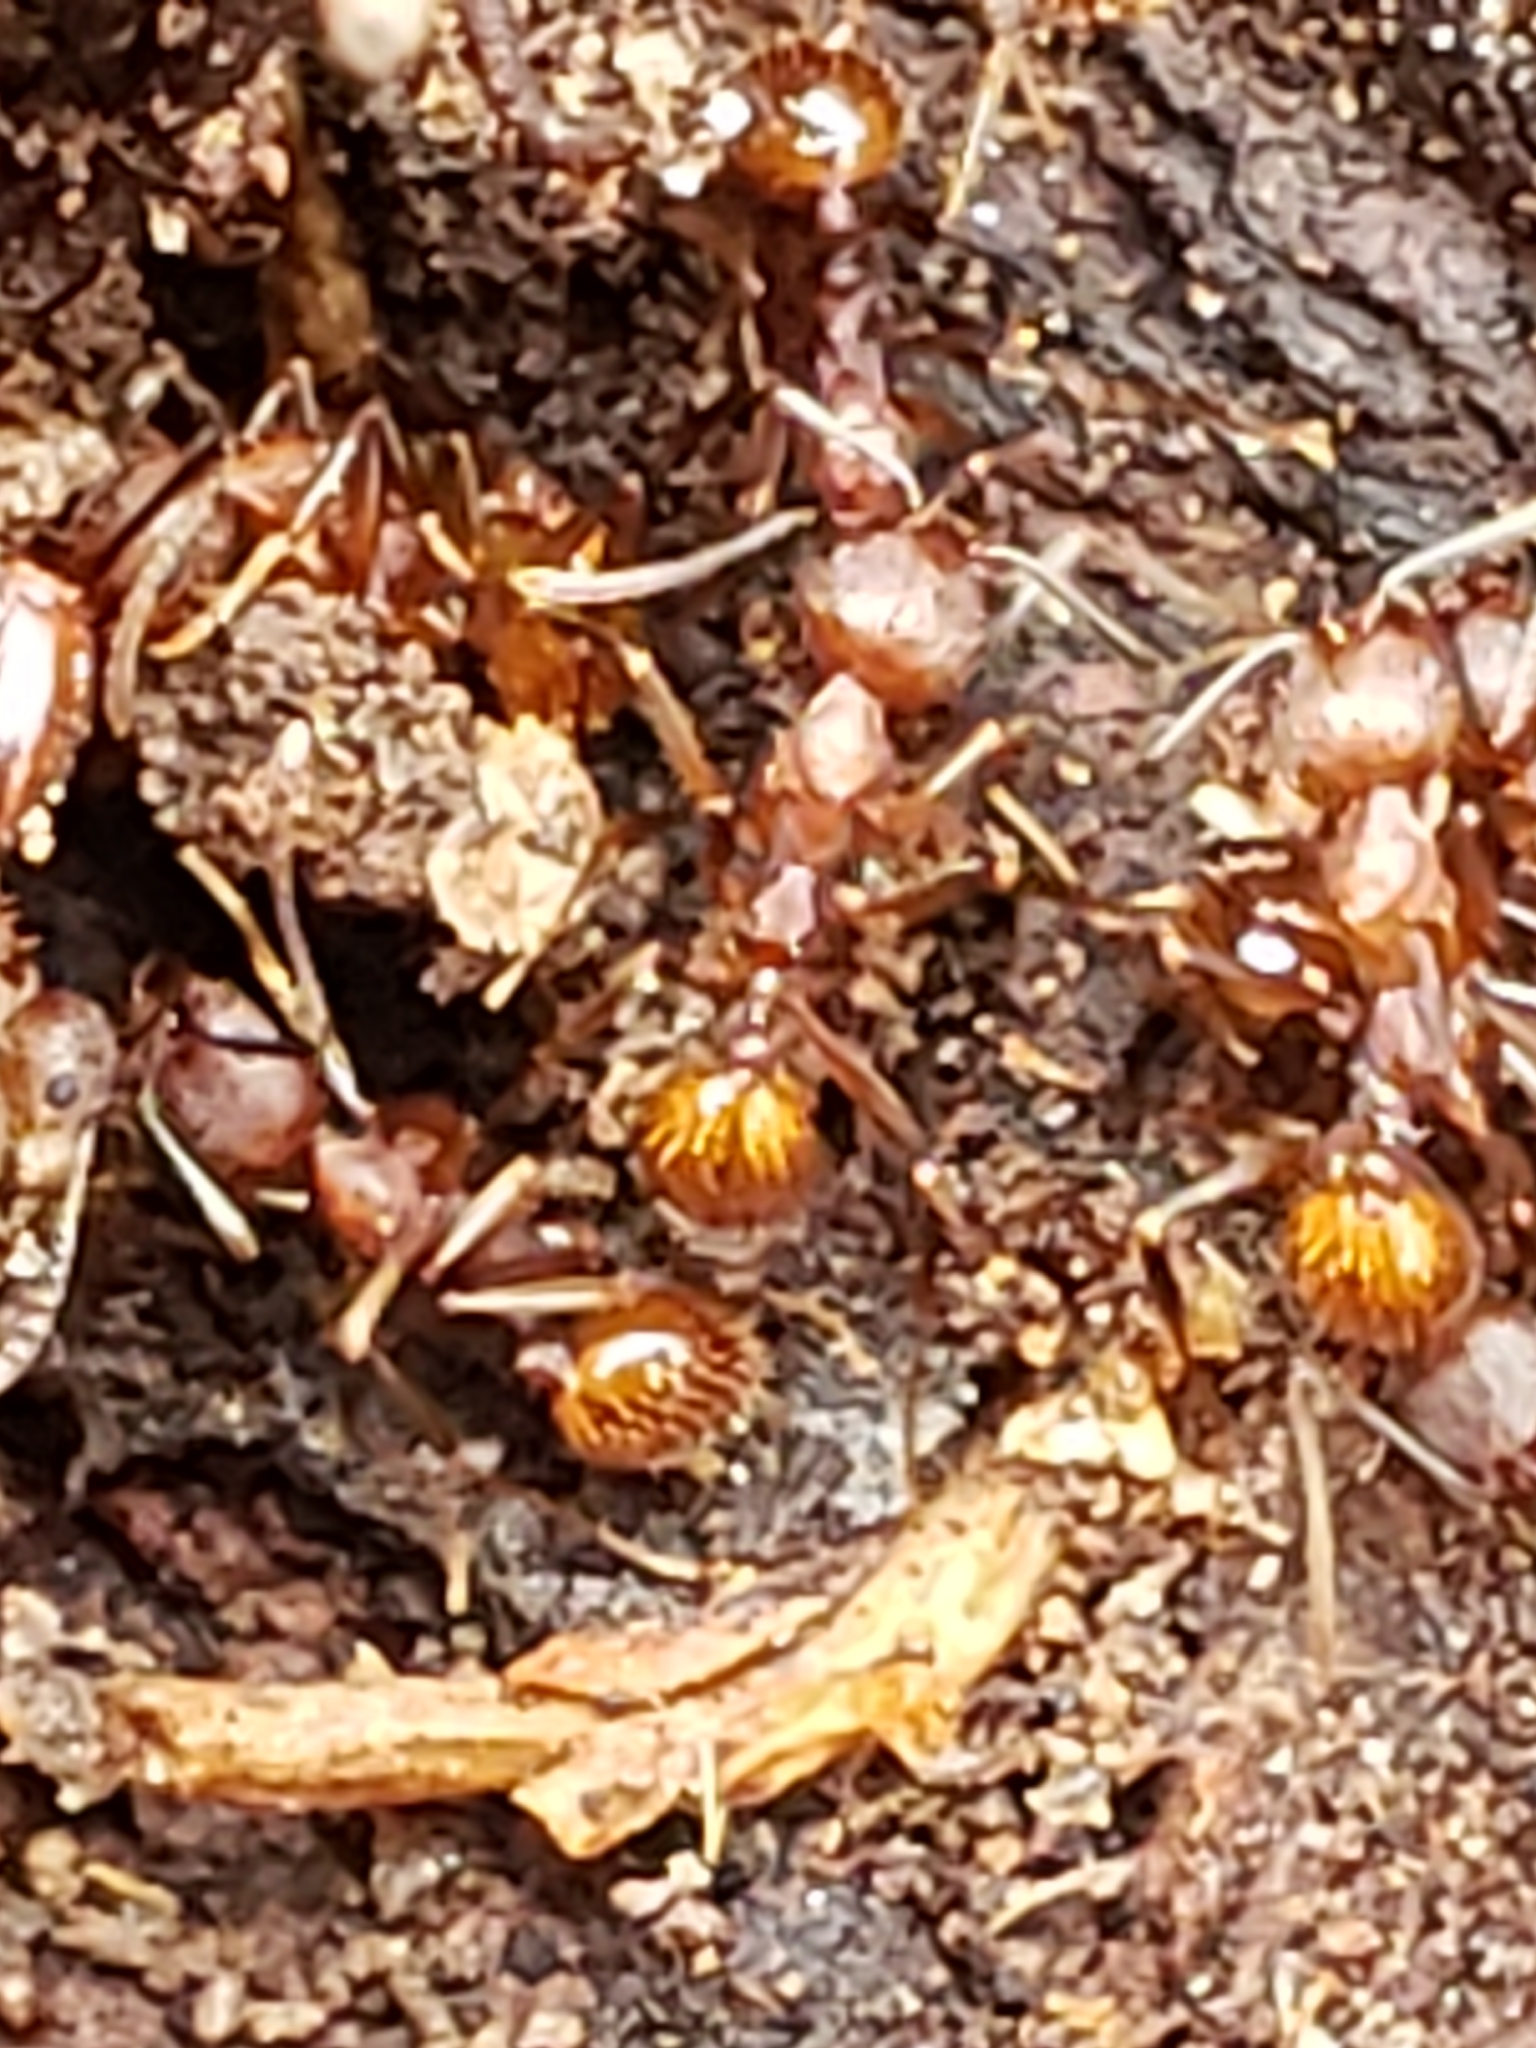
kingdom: Animalia
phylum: Arthropoda
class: Insecta
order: Hymenoptera
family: Formicidae
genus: Aphaenogaster
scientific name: Aphaenogaster fulva
